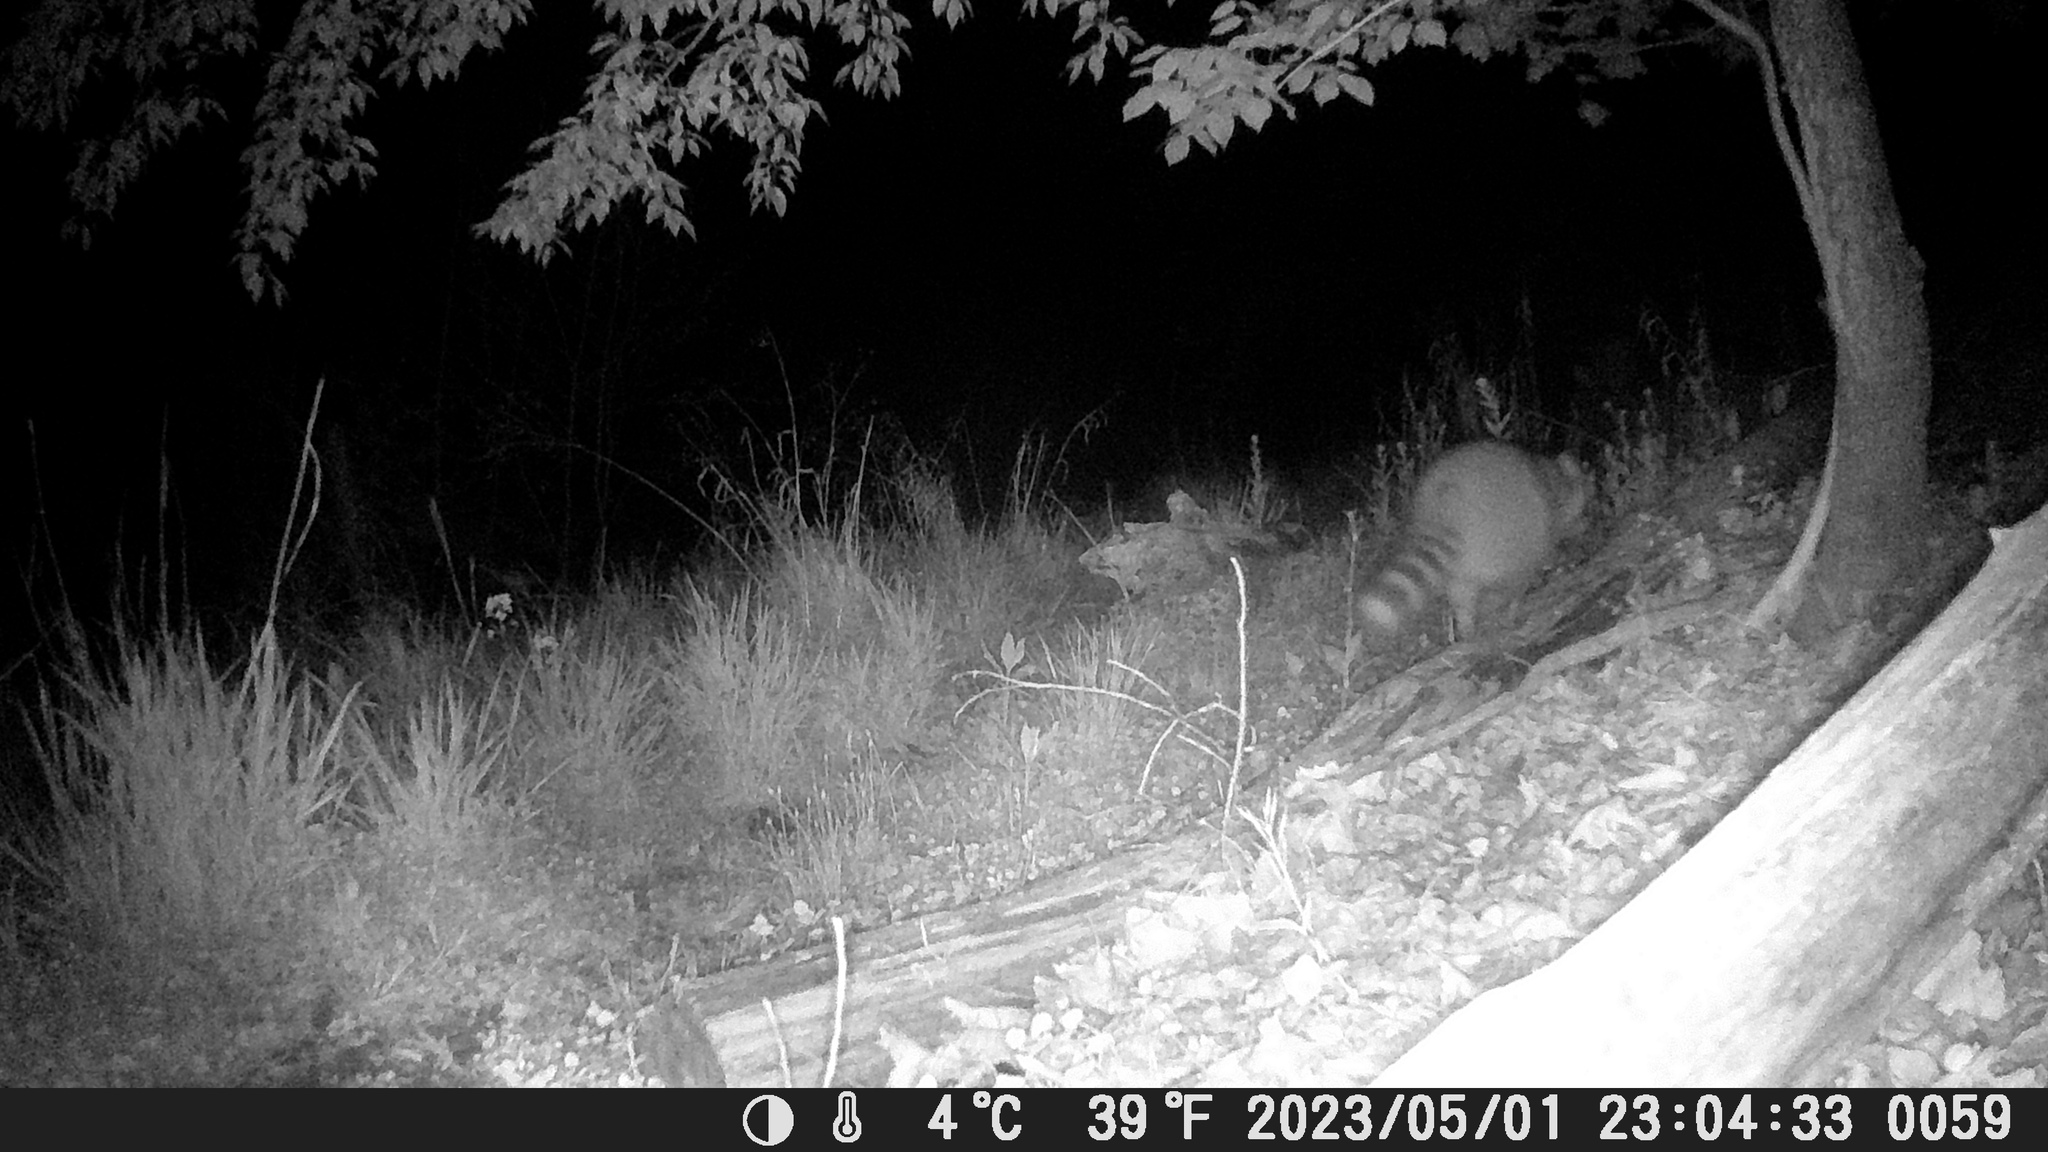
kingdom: Animalia
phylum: Chordata
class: Mammalia
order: Carnivora
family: Procyonidae
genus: Procyon
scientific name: Procyon lotor
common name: Raccoon
